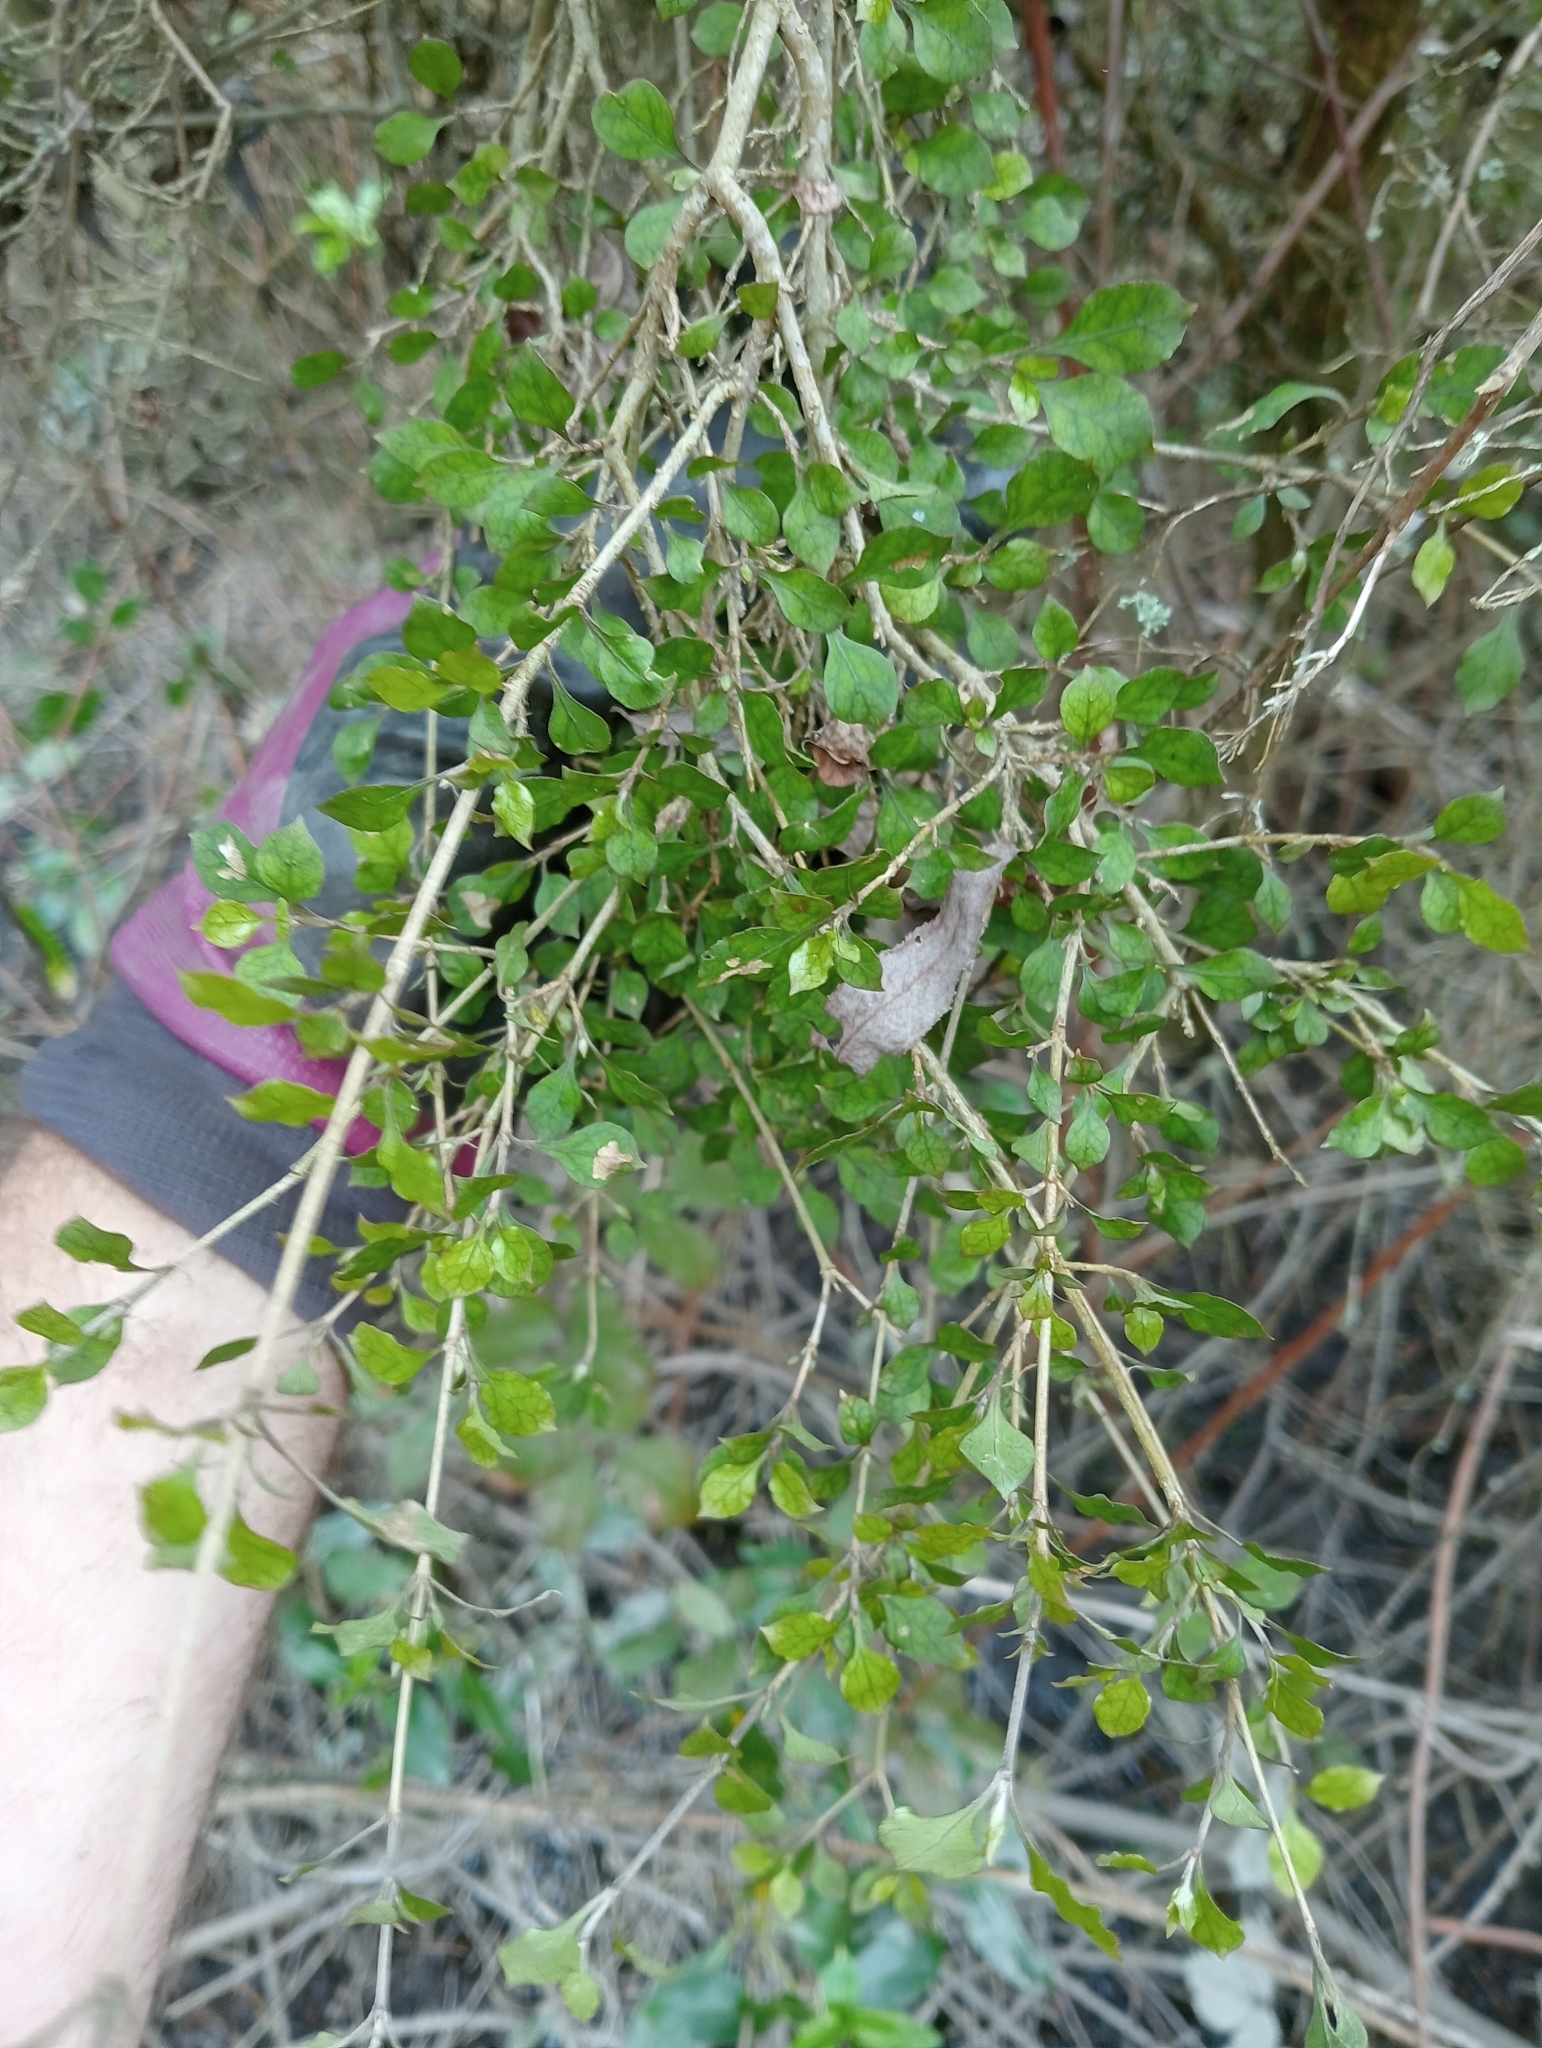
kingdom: Plantae
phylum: Tracheophyta
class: Magnoliopsida
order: Gentianales
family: Rubiaceae
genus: Coprosma
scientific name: Coprosma areolata
